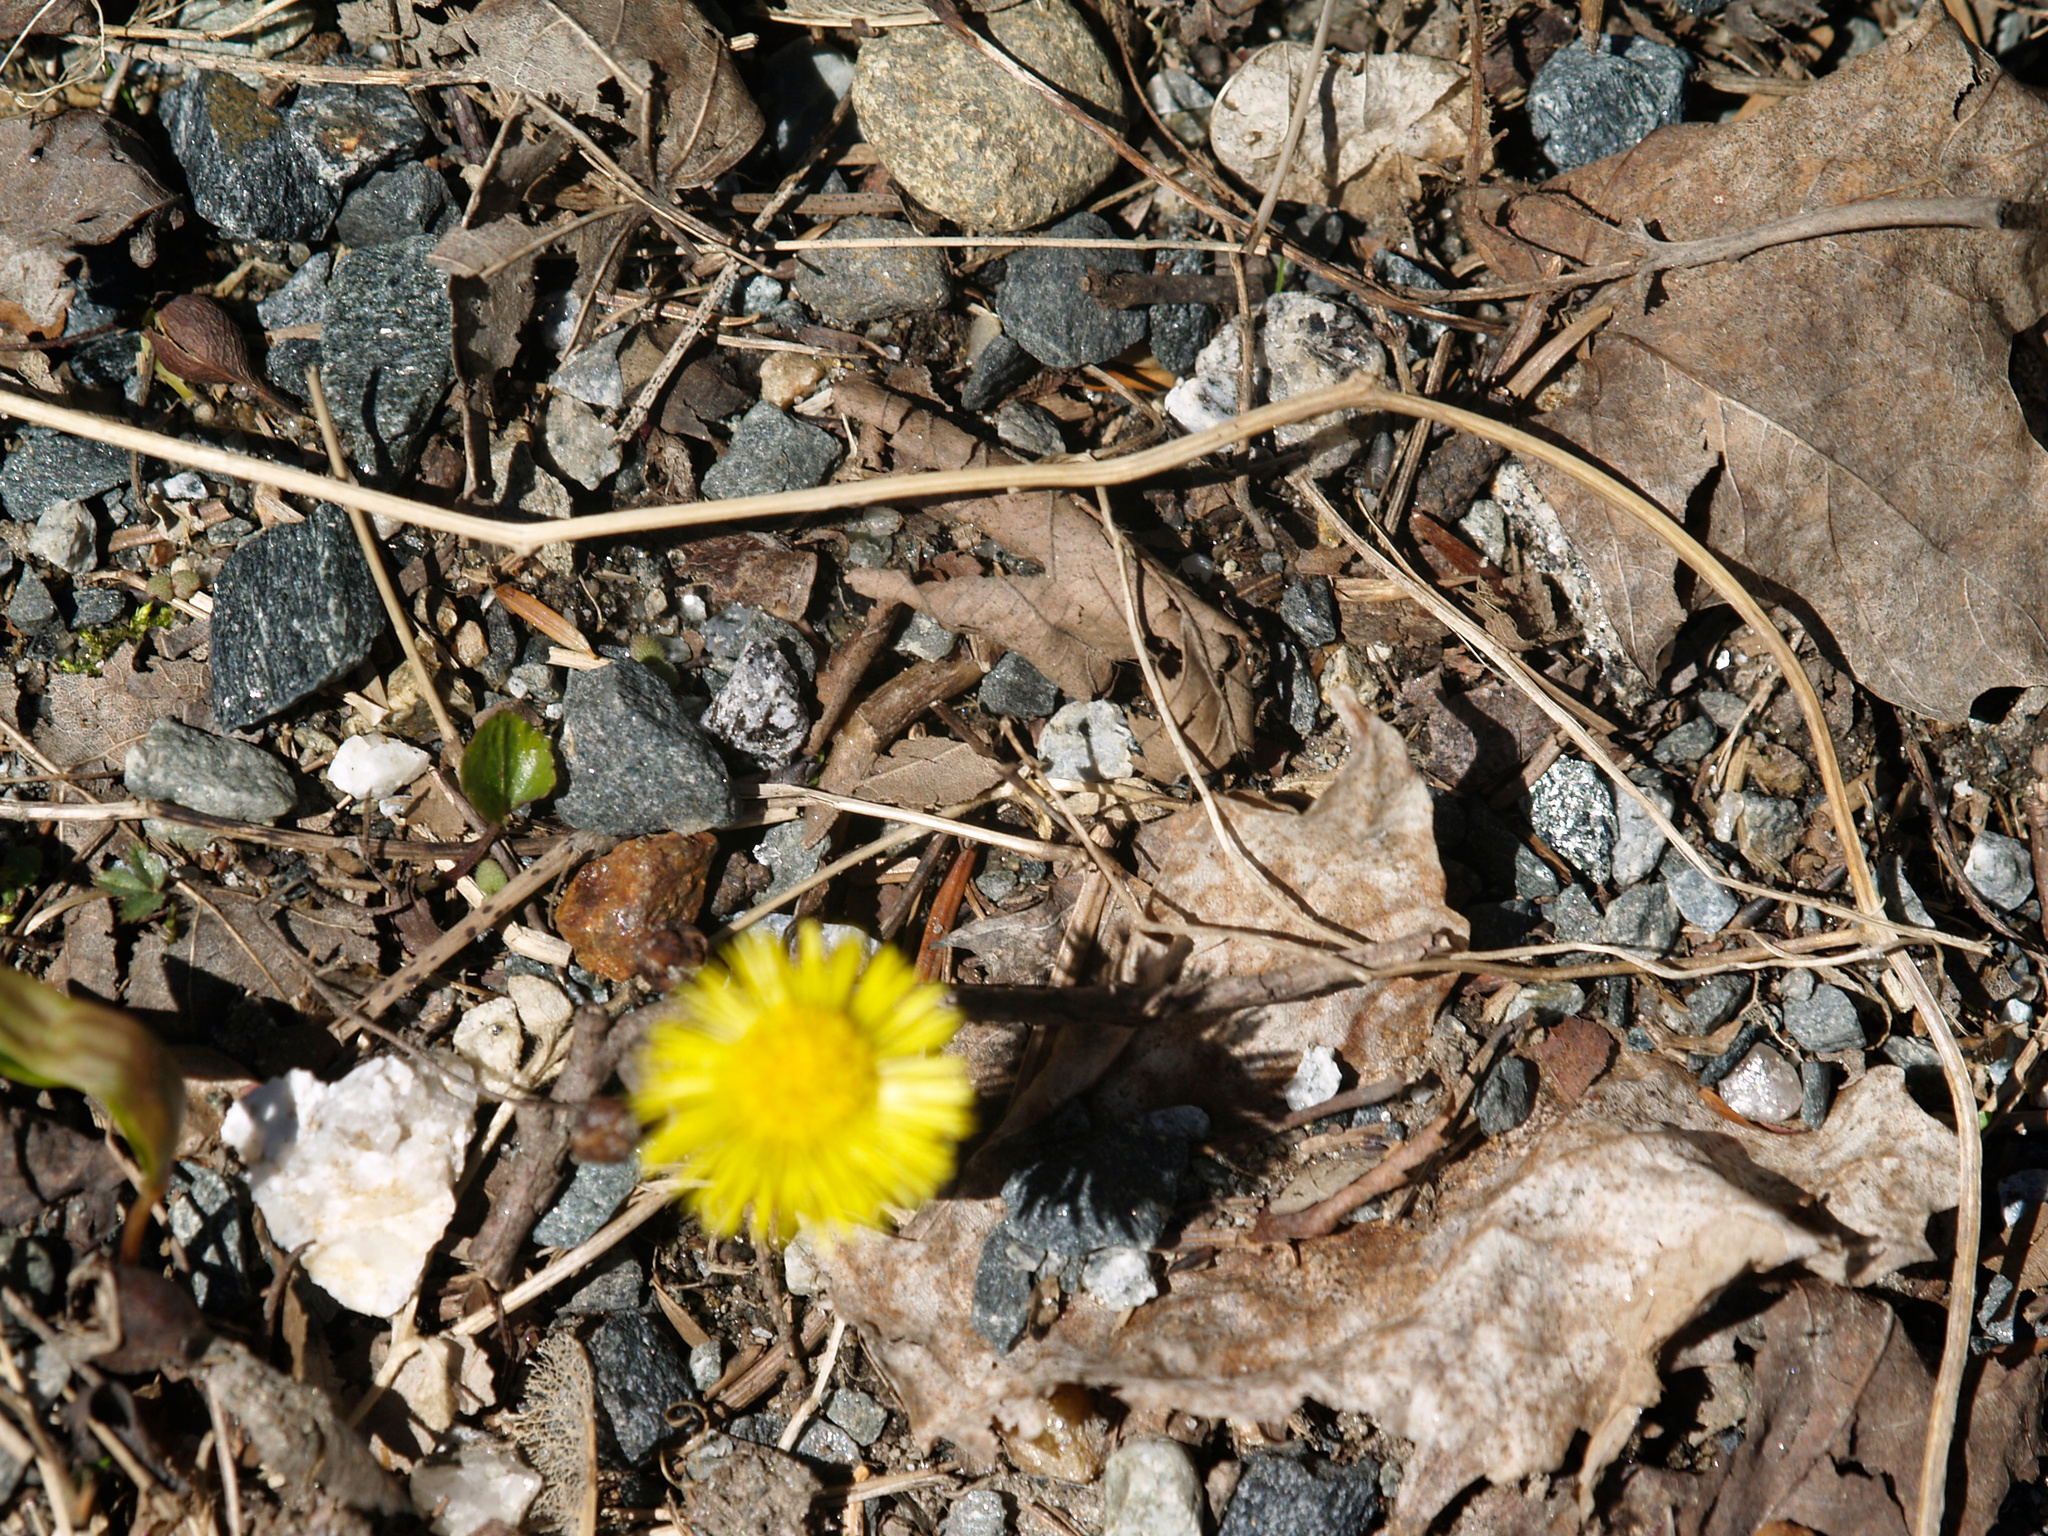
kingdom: Plantae
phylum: Tracheophyta
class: Magnoliopsida
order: Asterales
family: Asteraceae
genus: Tussilago
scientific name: Tussilago farfara
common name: Coltsfoot
